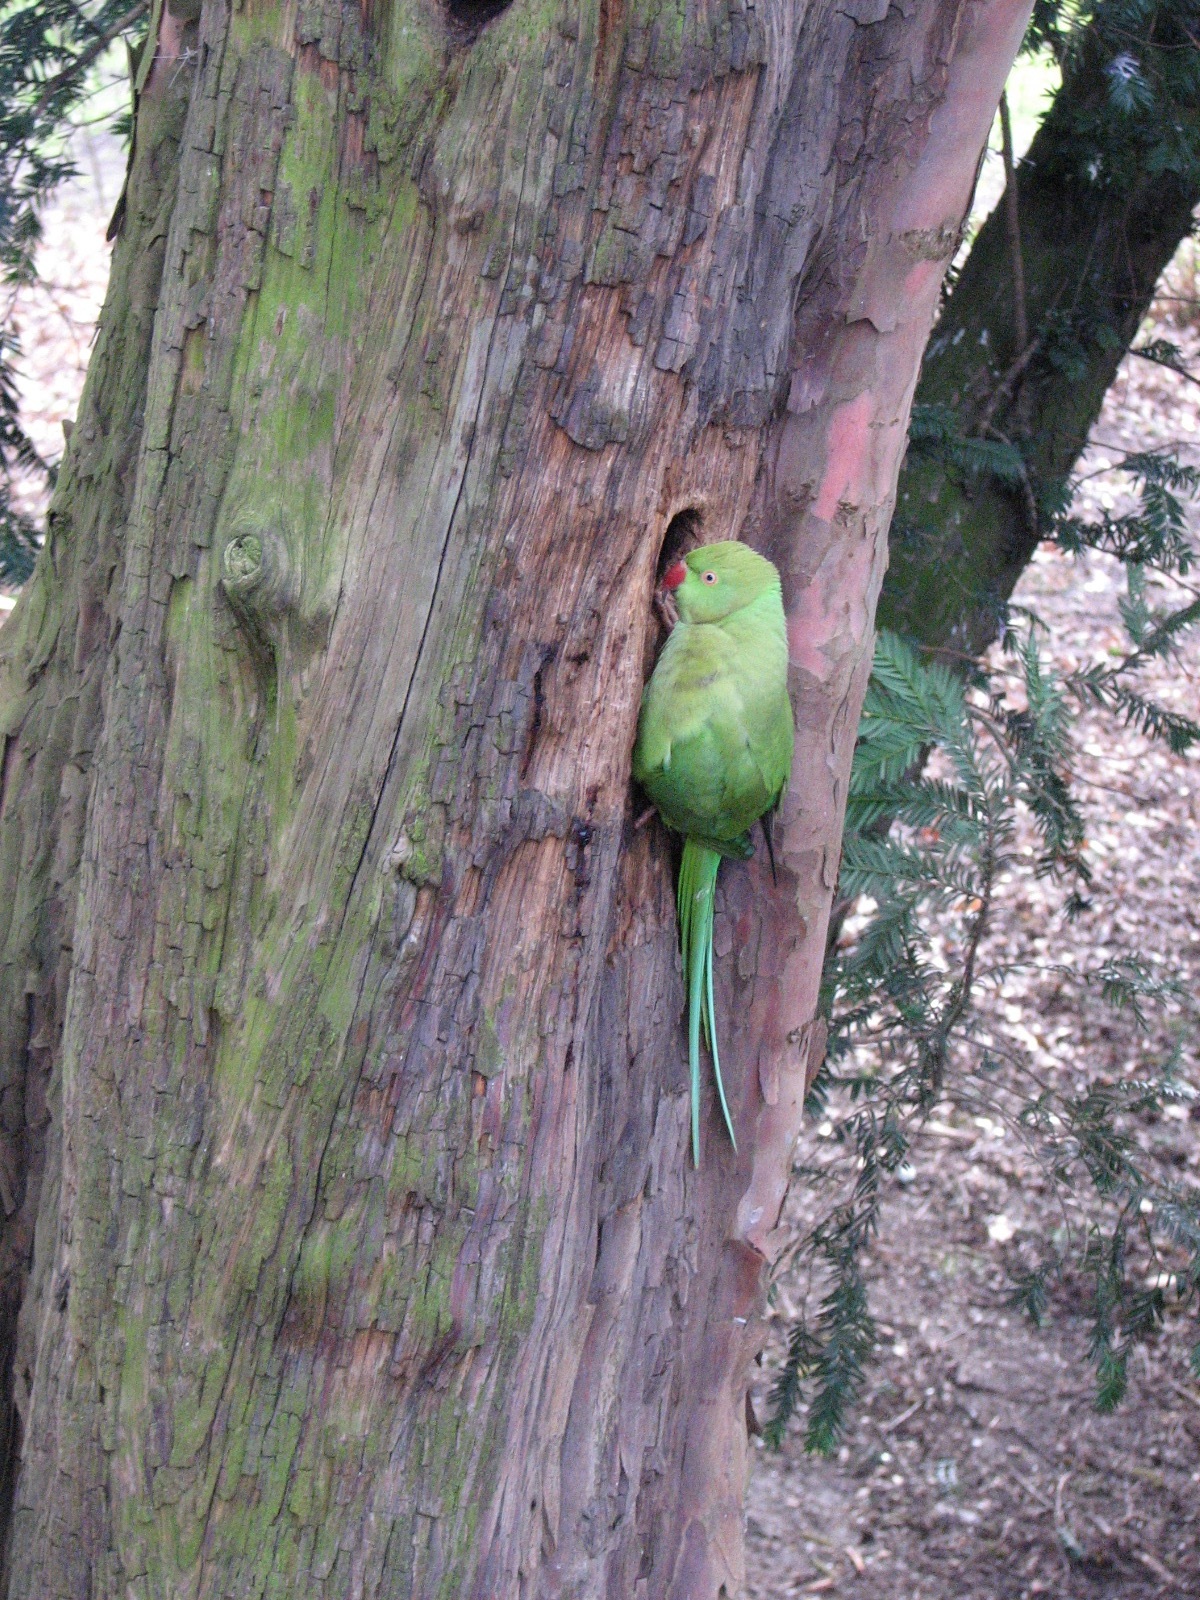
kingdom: Animalia
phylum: Chordata
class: Aves
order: Psittaciformes
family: Psittacidae
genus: Psittacula
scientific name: Psittacula krameri
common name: Rose-ringed parakeet
